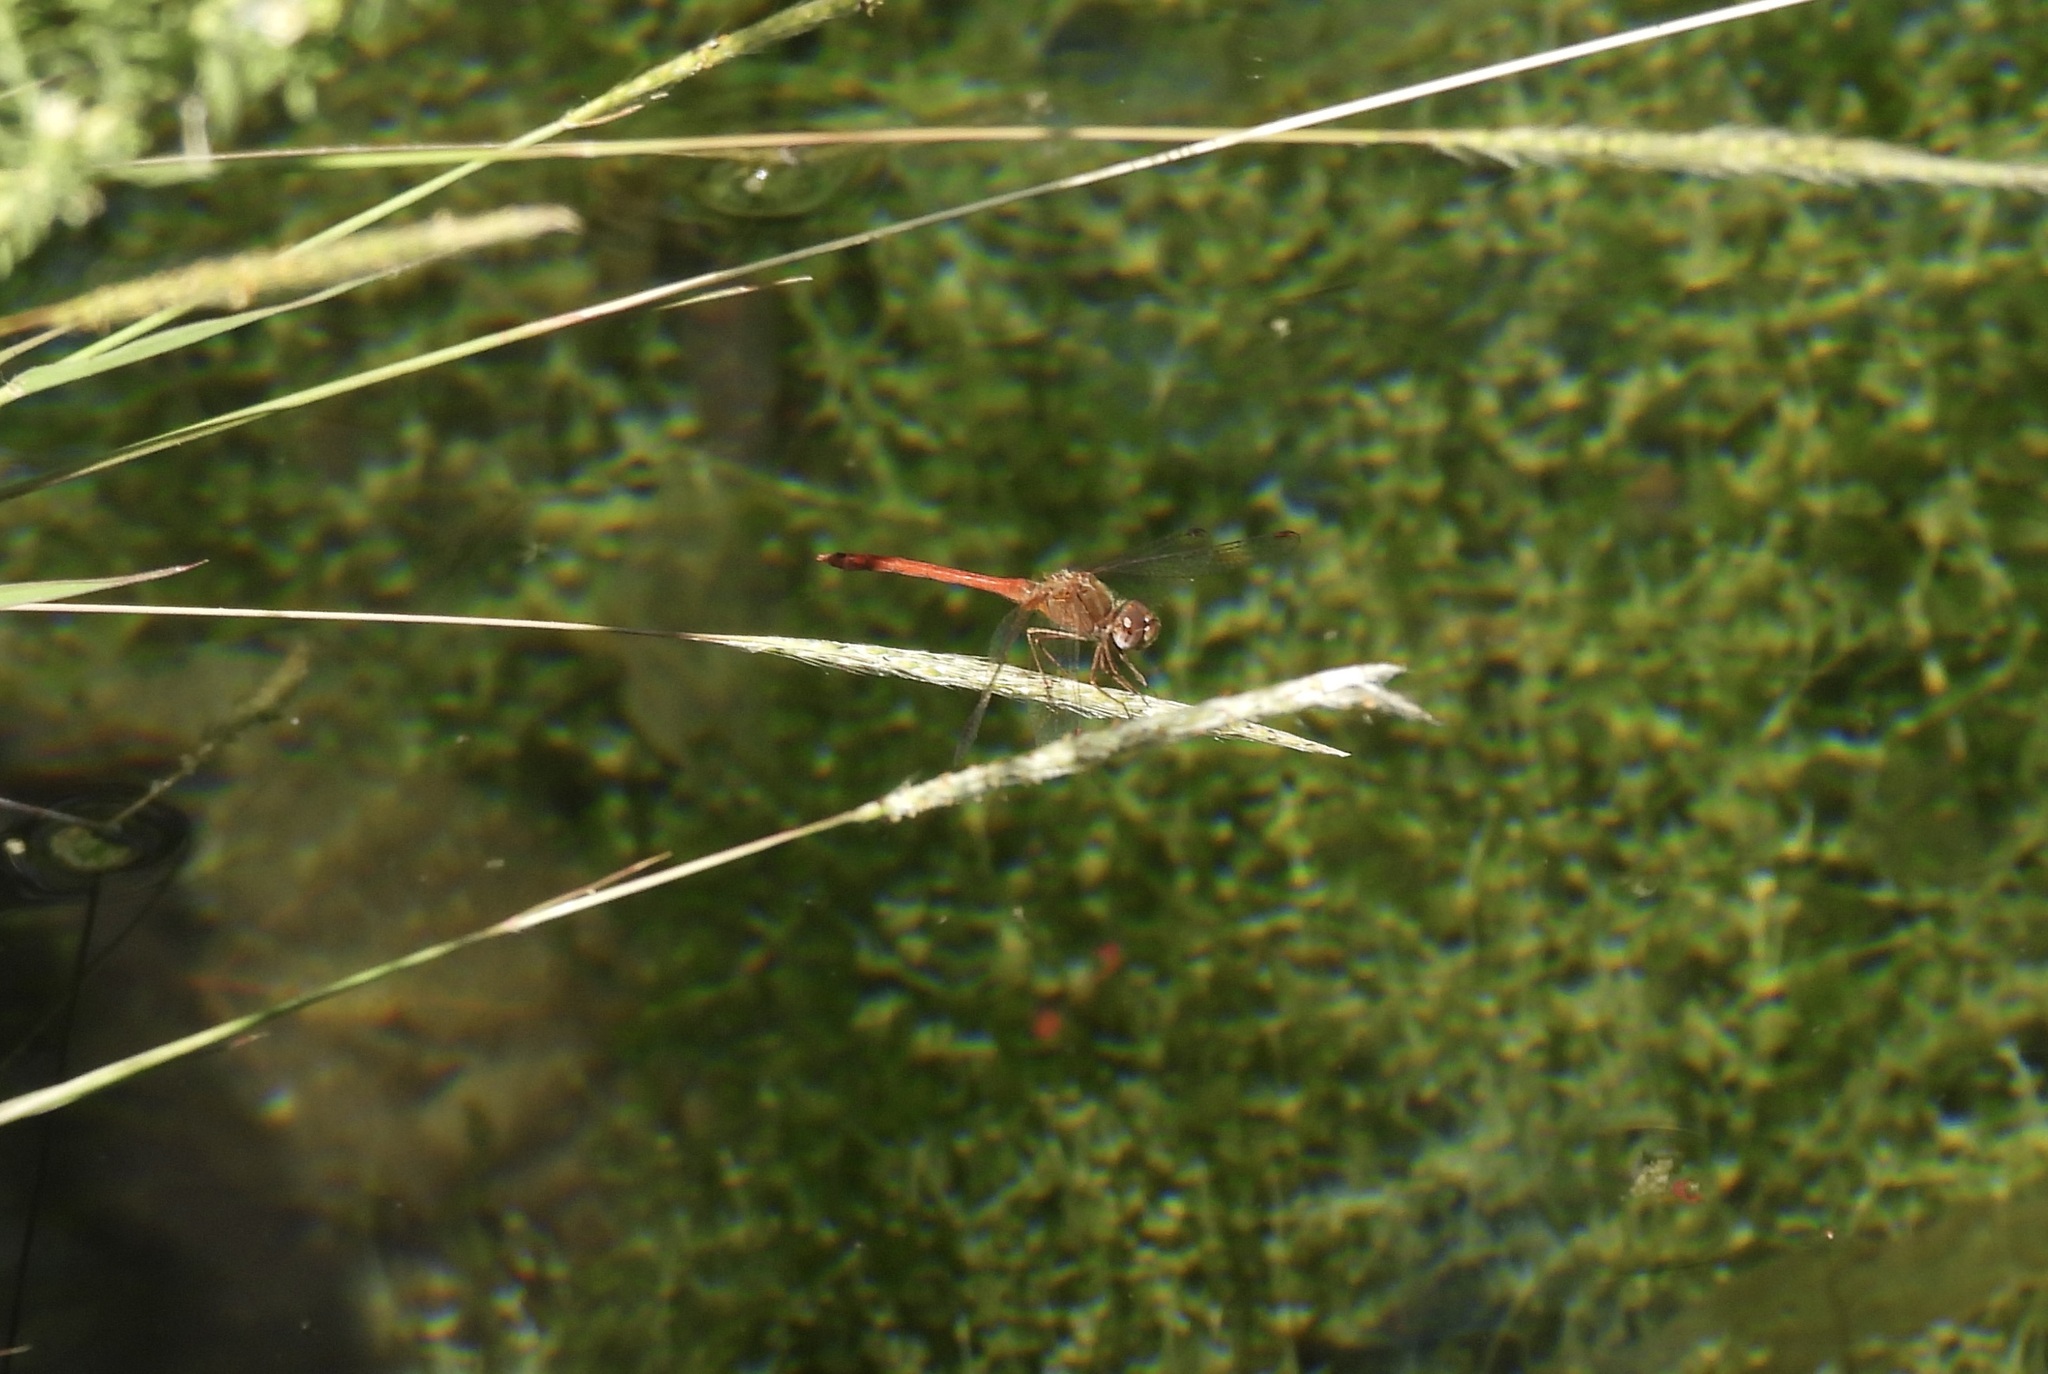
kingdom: Animalia
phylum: Arthropoda
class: Insecta
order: Odonata
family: Libellulidae
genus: Sympetrum
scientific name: Sympetrum vicinum
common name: Autumn meadowhawk
